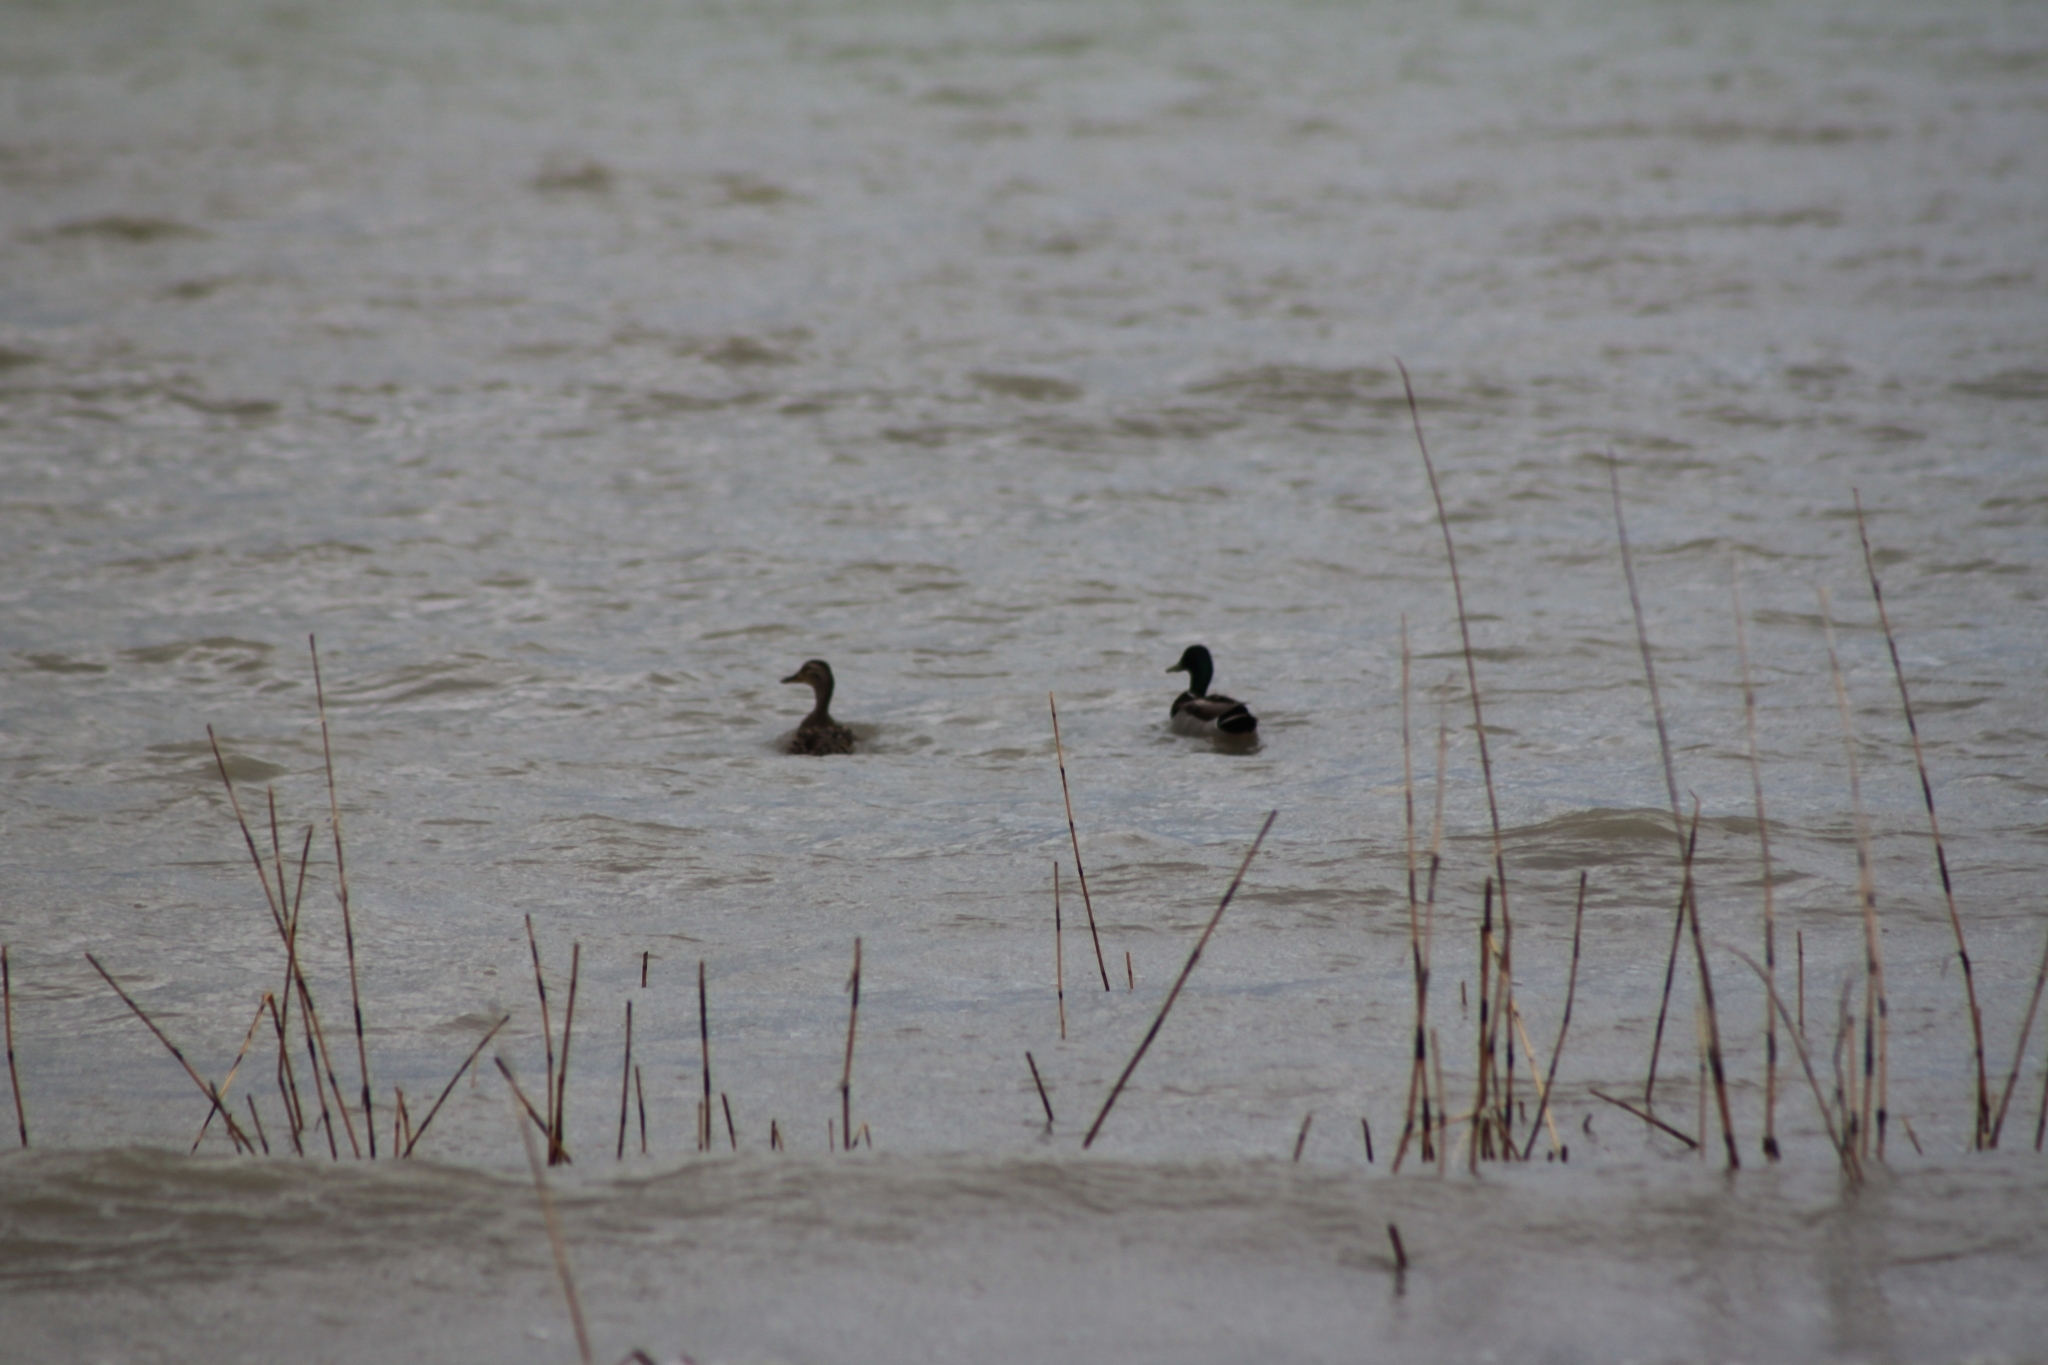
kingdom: Animalia
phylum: Chordata
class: Aves
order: Anseriformes
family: Anatidae
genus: Anas
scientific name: Anas platyrhynchos
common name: Mallard
